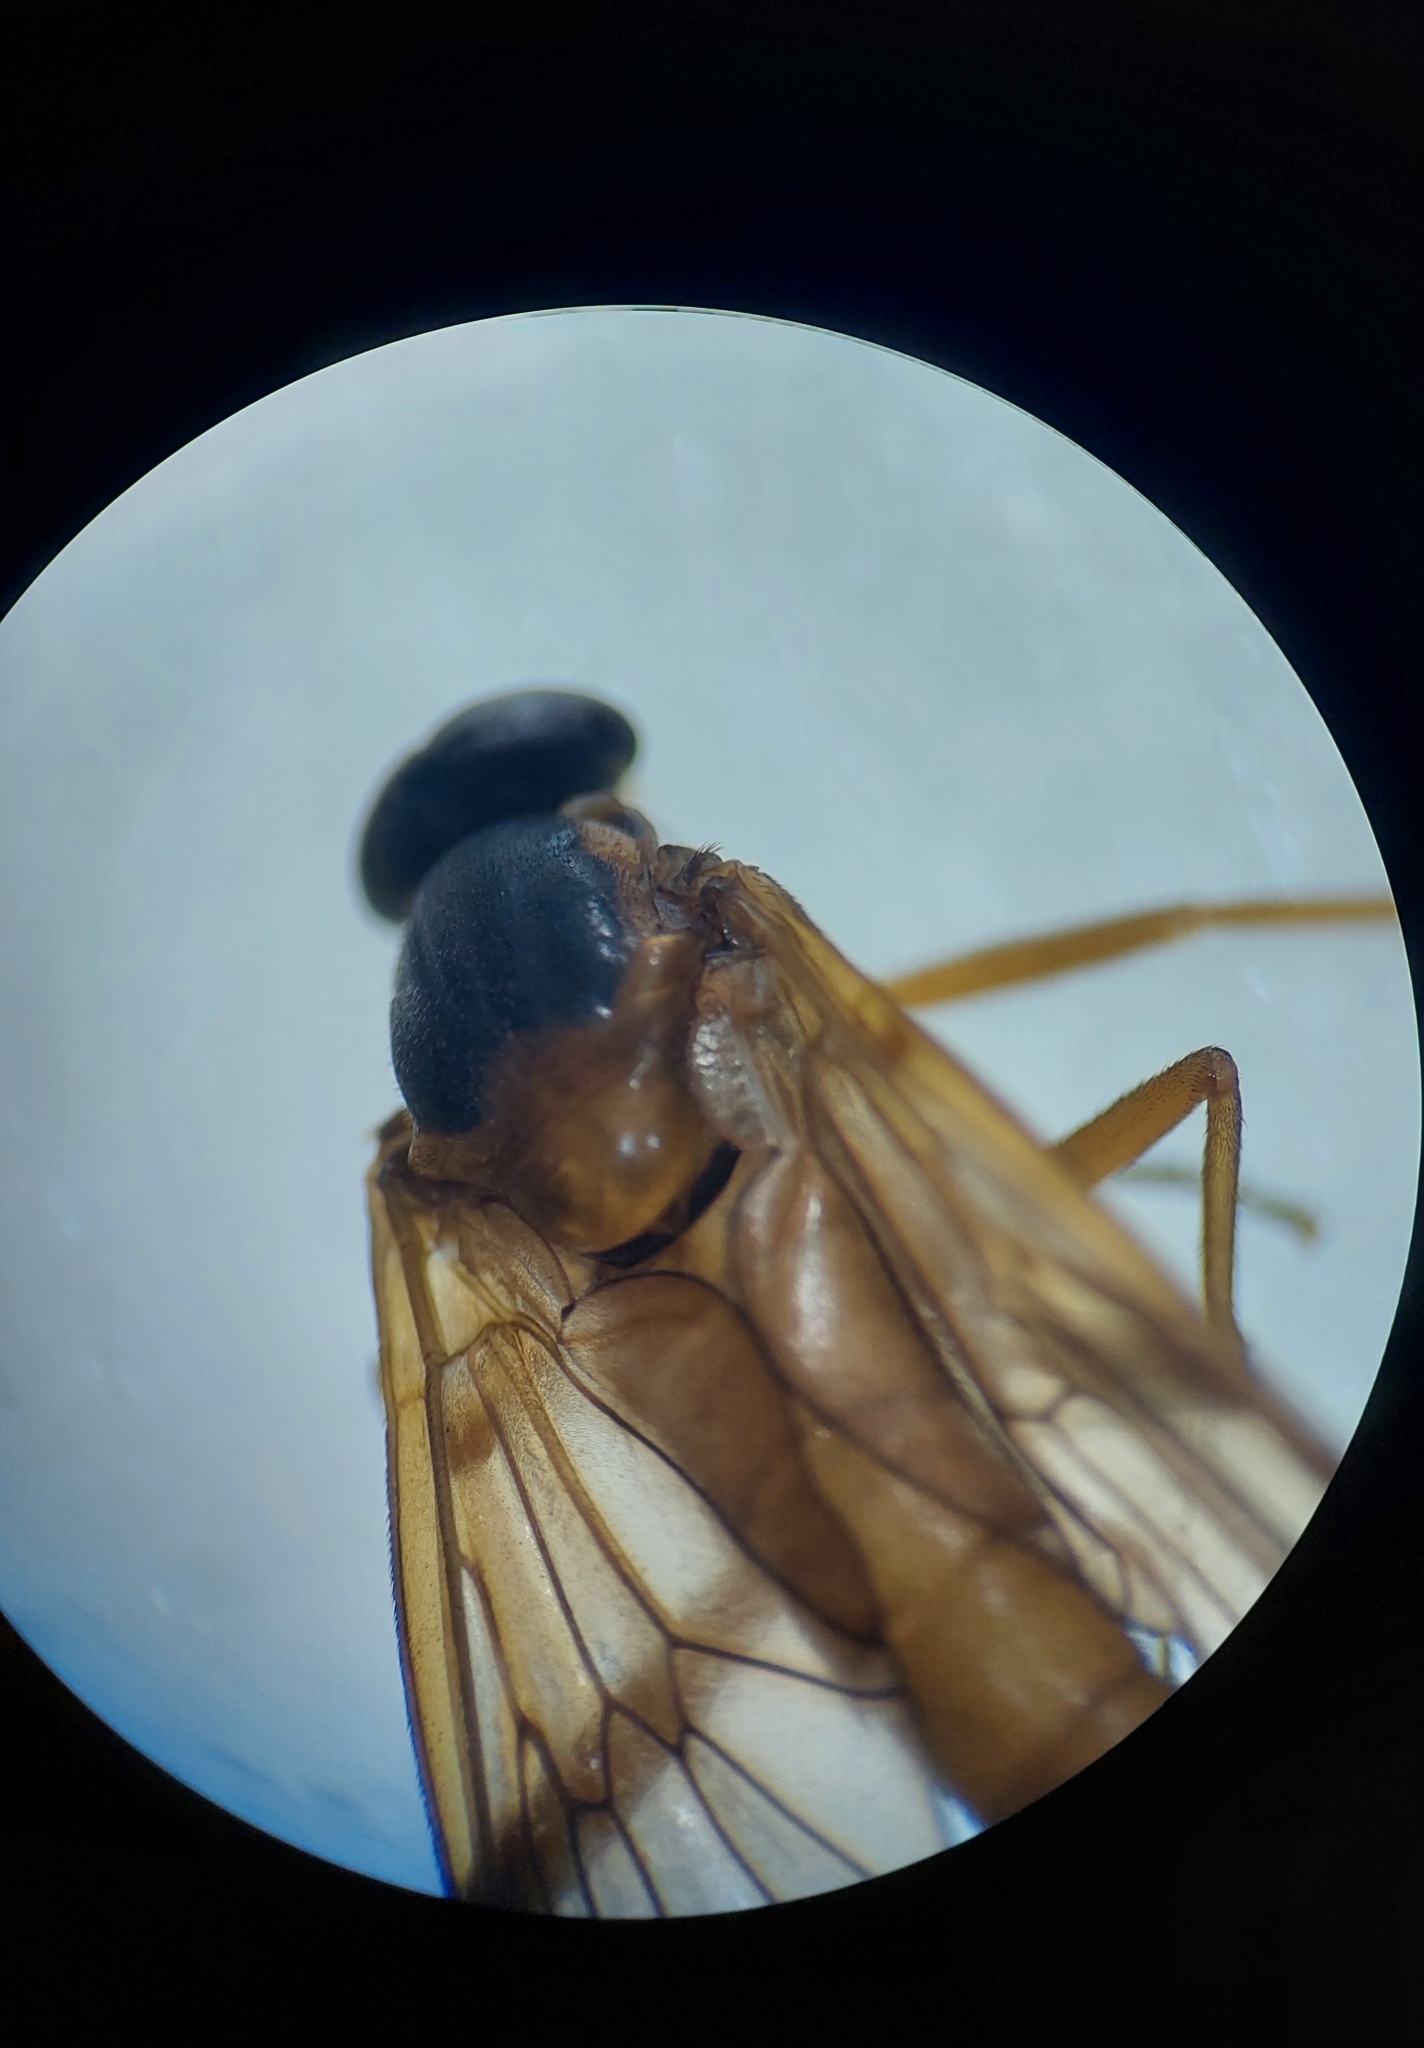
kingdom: Animalia
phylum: Arthropoda
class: Insecta
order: Diptera
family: Rhagionidae
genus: Rhagio
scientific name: Rhagio immaculatus
